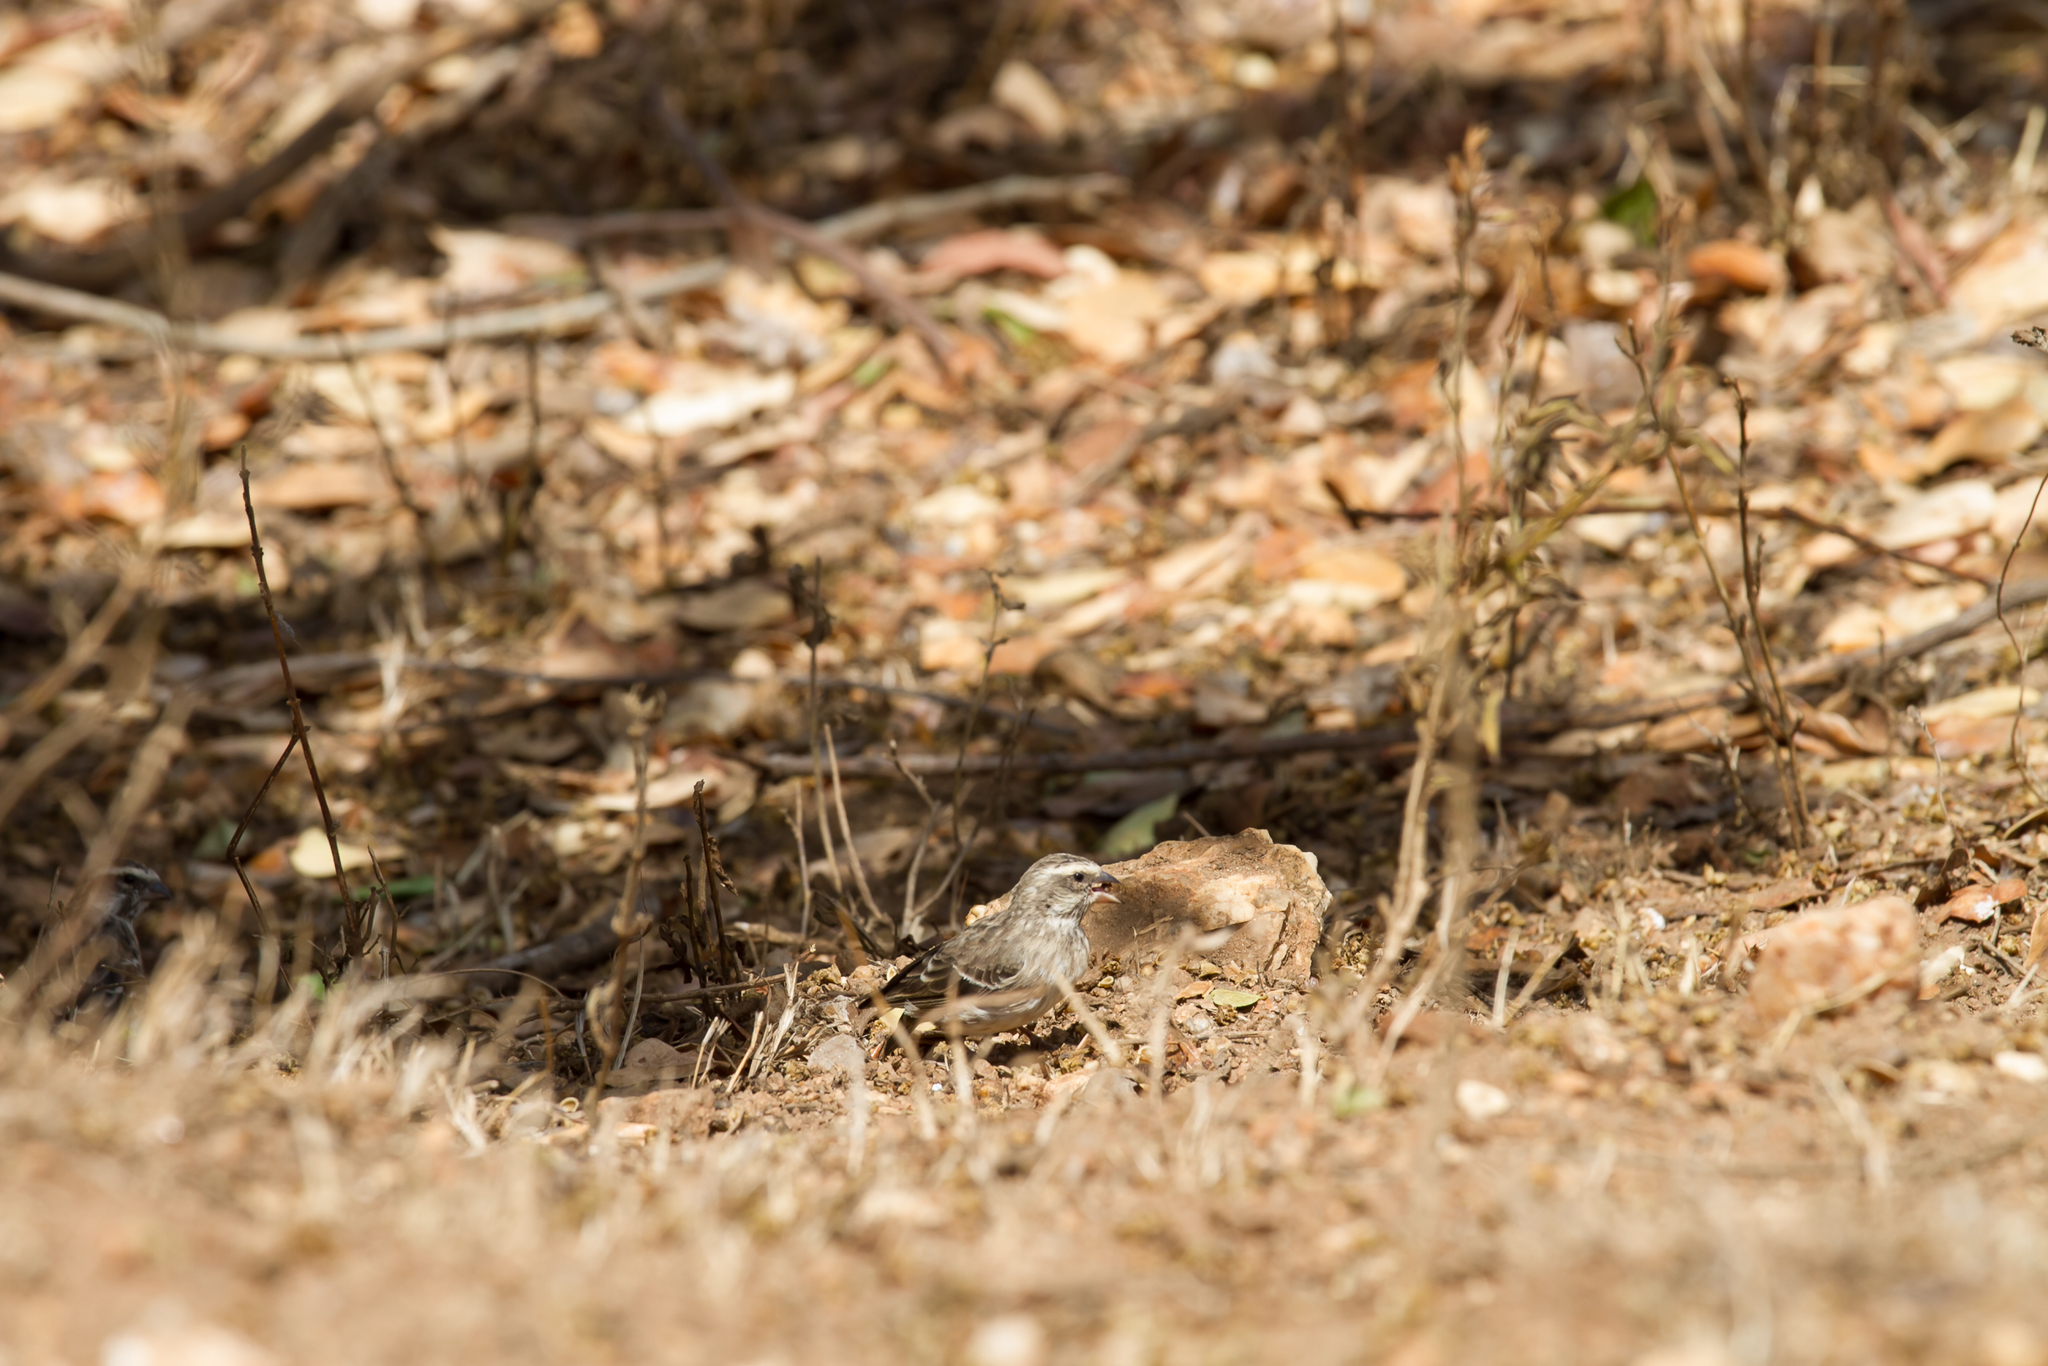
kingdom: Animalia
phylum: Chordata
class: Aves
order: Passeriformes
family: Fringillidae
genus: Crithagra
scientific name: Crithagra reichenowi
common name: Reichenow's seedeater
